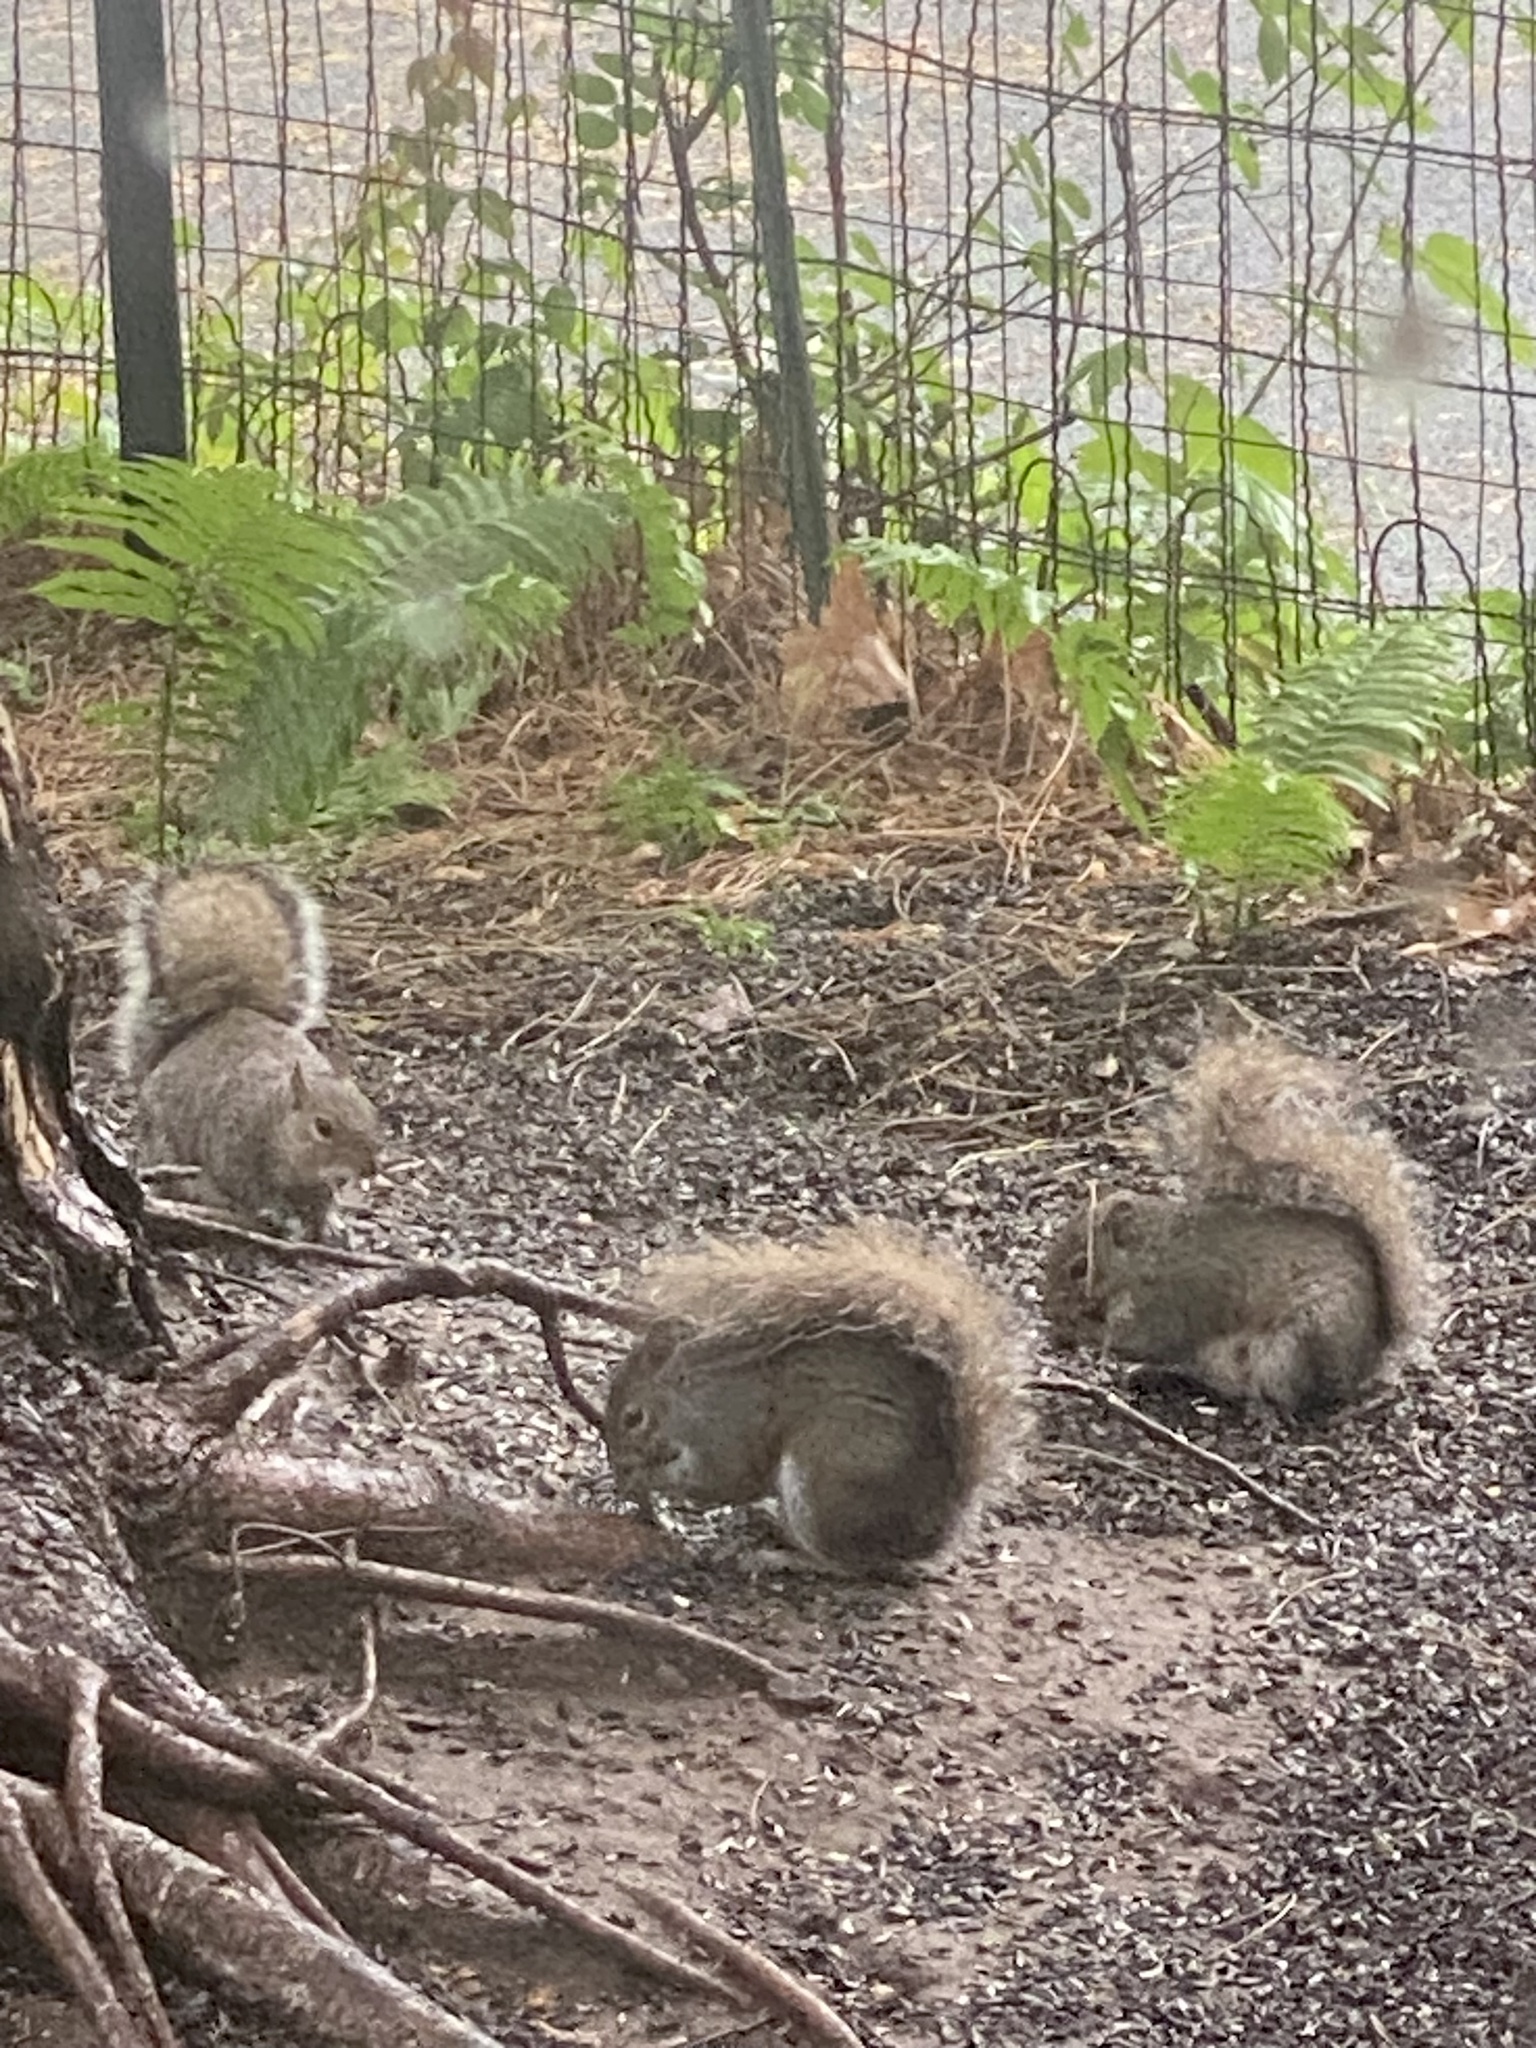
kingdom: Animalia
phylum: Chordata
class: Mammalia
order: Rodentia
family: Sciuridae
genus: Sciurus
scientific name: Sciurus carolinensis
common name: Eastern gray squirrel
